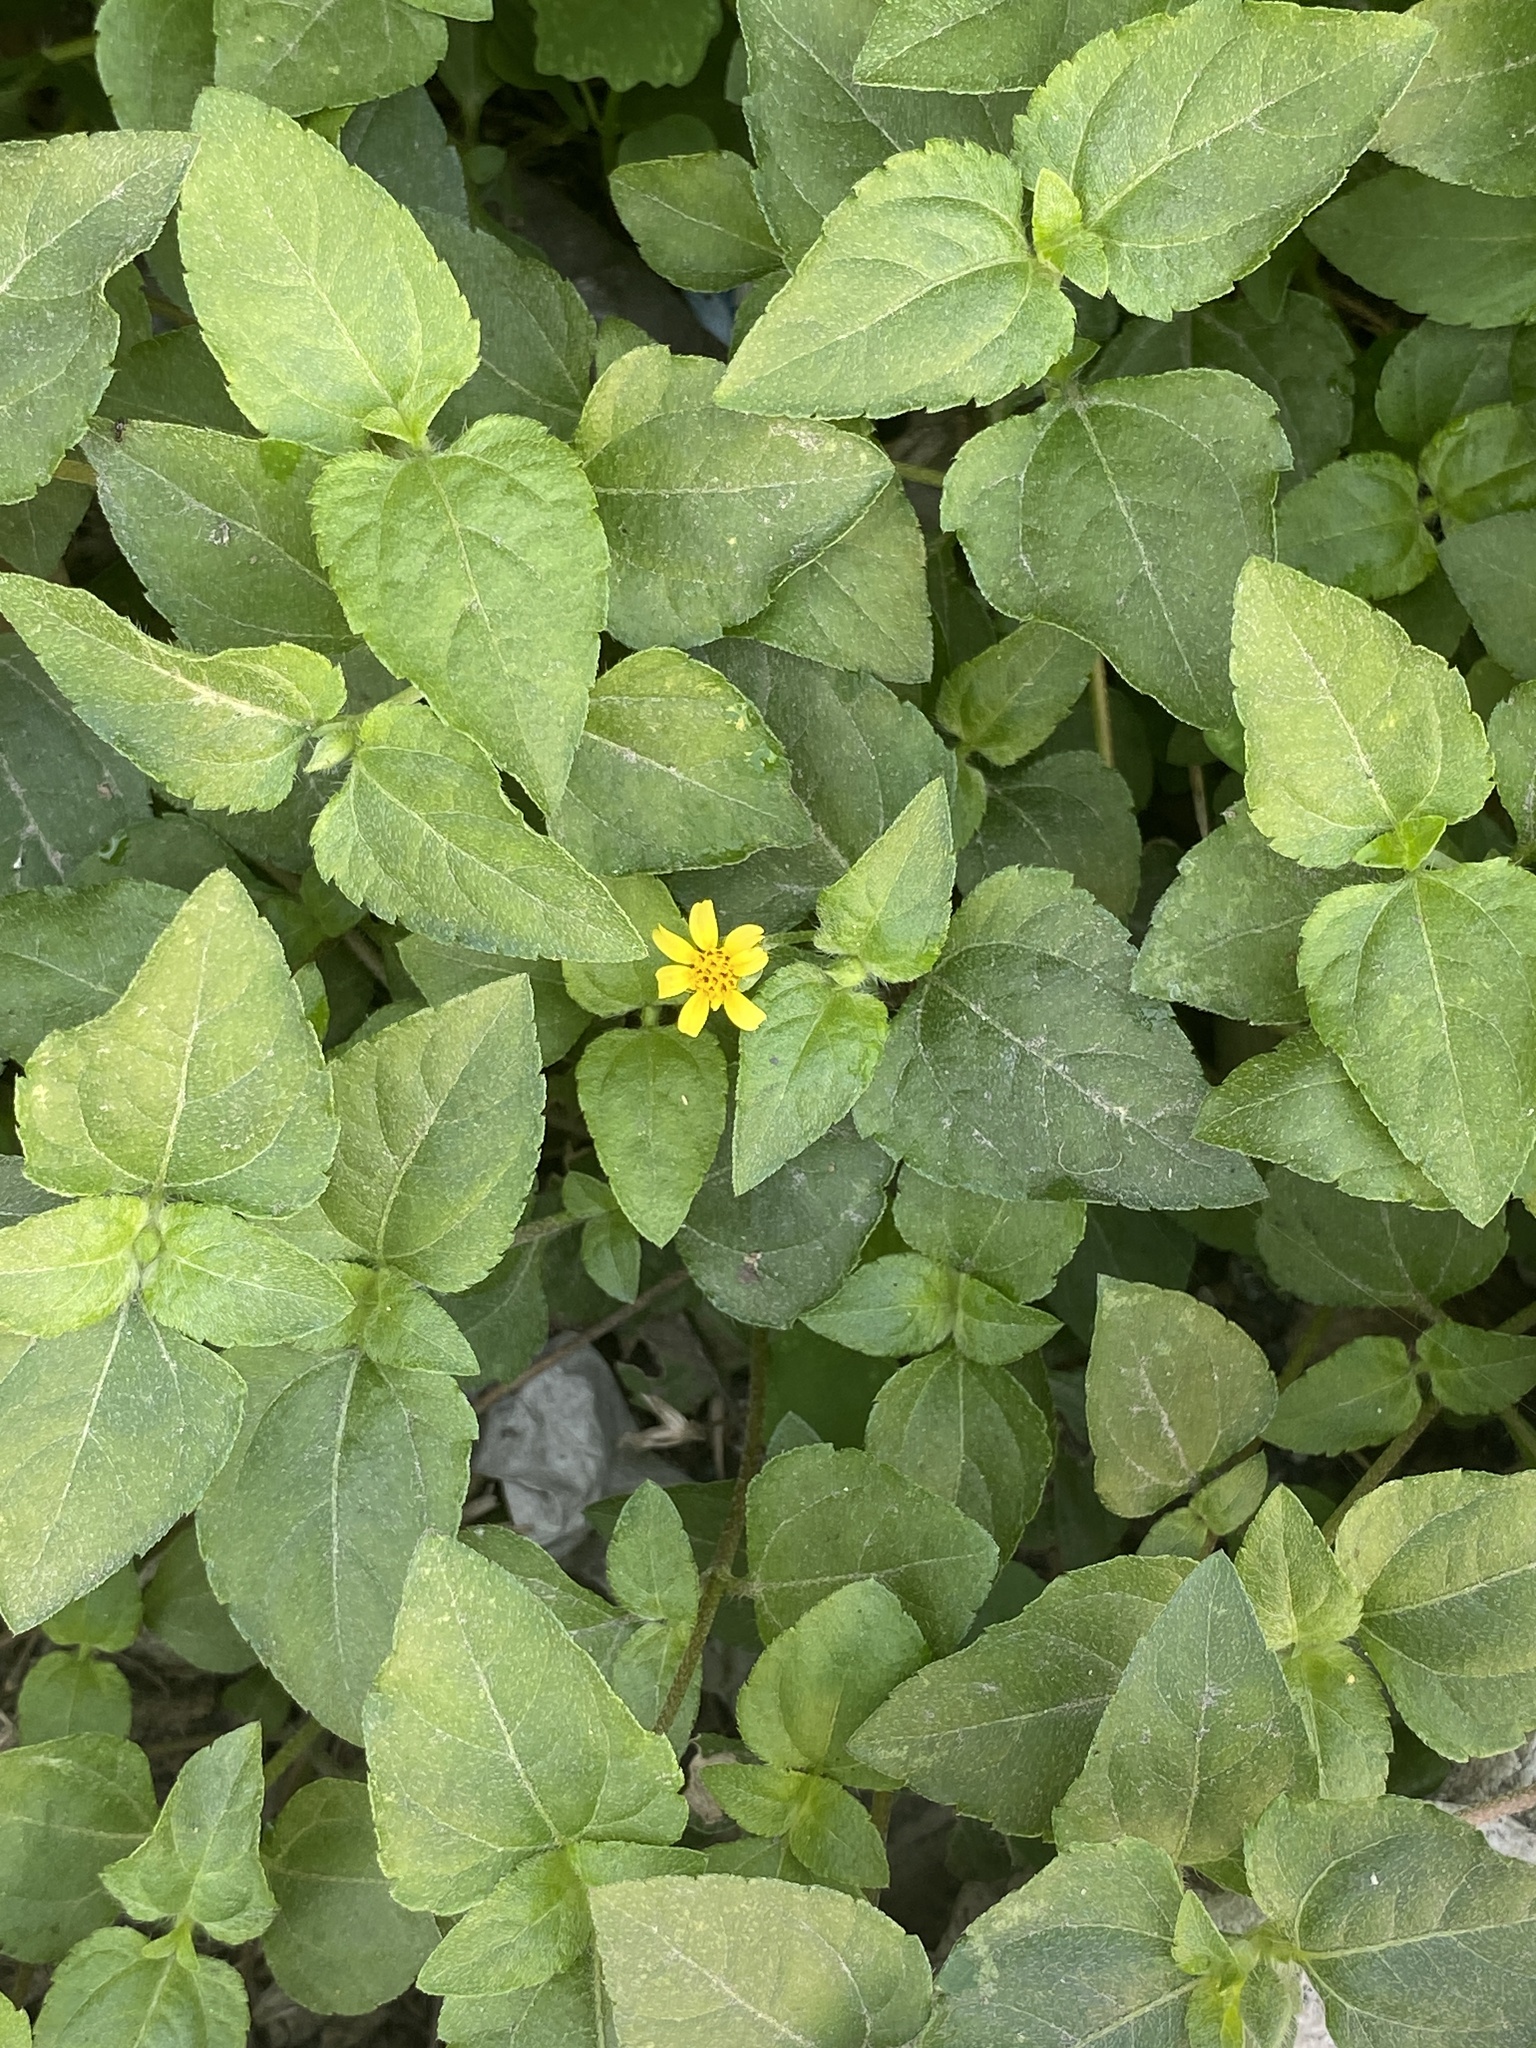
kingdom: Plantae
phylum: Tracheophyta
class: Magnoliopsida
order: Asterales
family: Asteraceae
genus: Calyptocarpus
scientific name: Calyptocarpus vialis
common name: Straggler daisy
